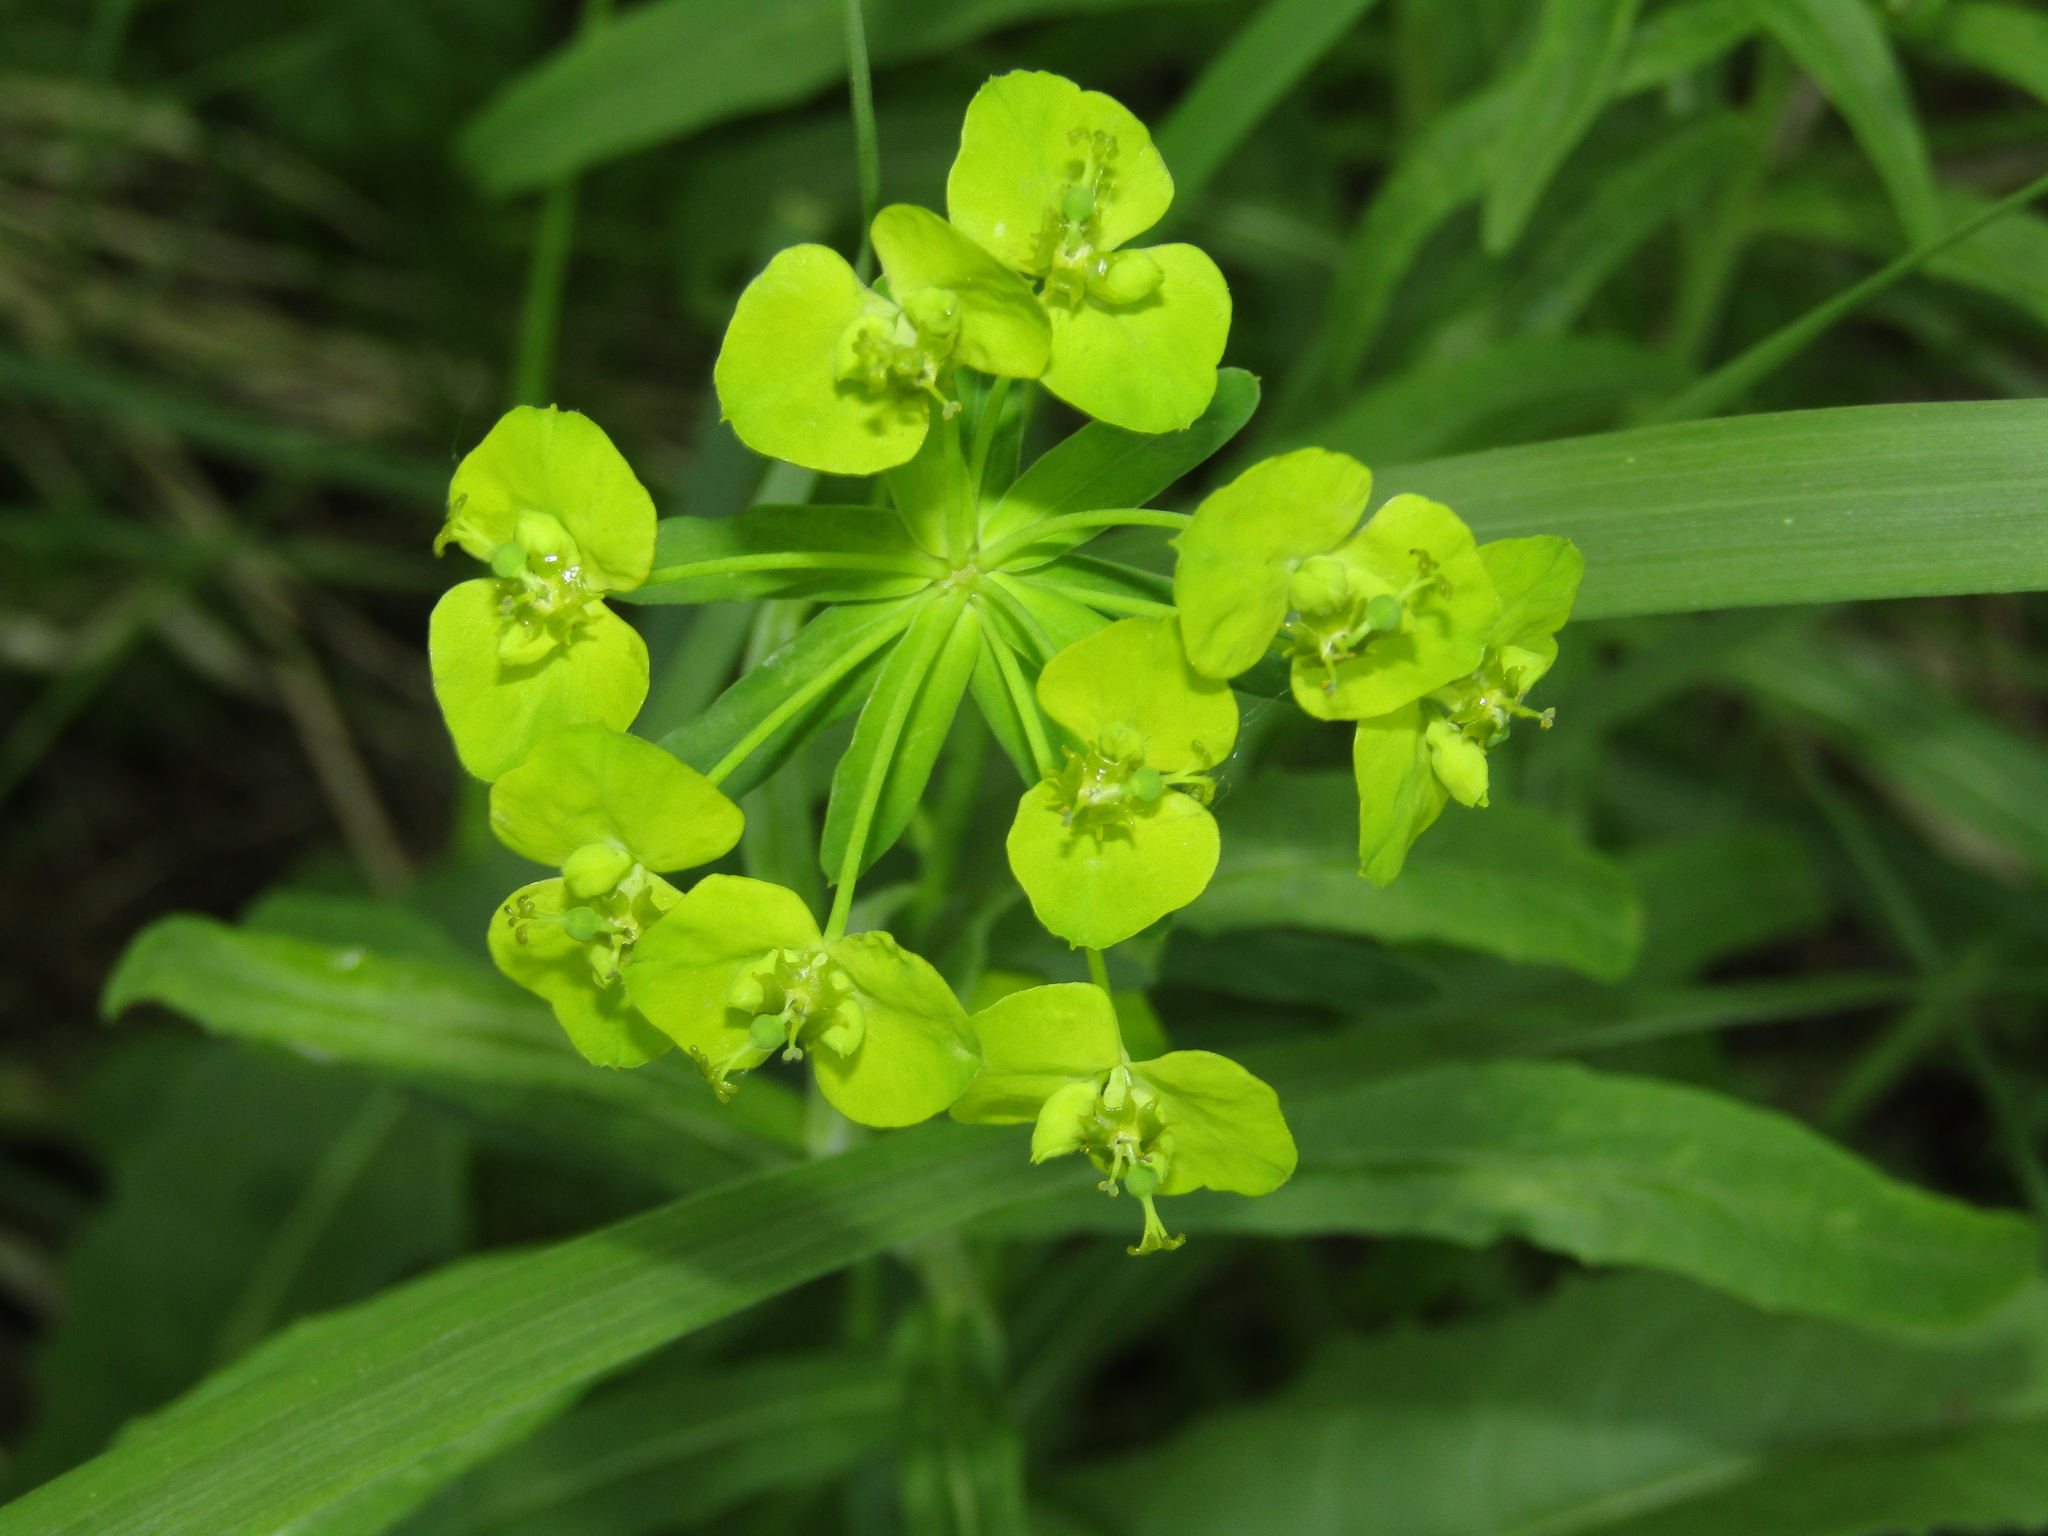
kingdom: Plantae
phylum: Tracheophyta
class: Magnoliopsida
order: Malpighiales
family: Euphorbiaceae
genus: Euphorbia
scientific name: Euphorbia virgata
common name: Leafy spurge
